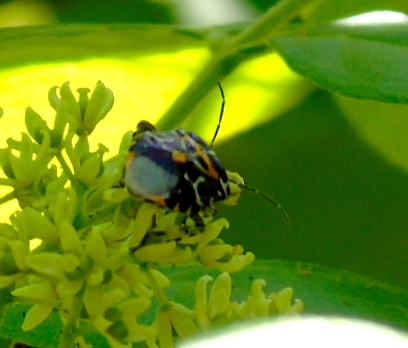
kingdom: Animalia
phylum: Arthropoda
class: Insecta
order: Hemiptera
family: Pentatomidae
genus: Murgantia
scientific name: Murgantia varicolor
